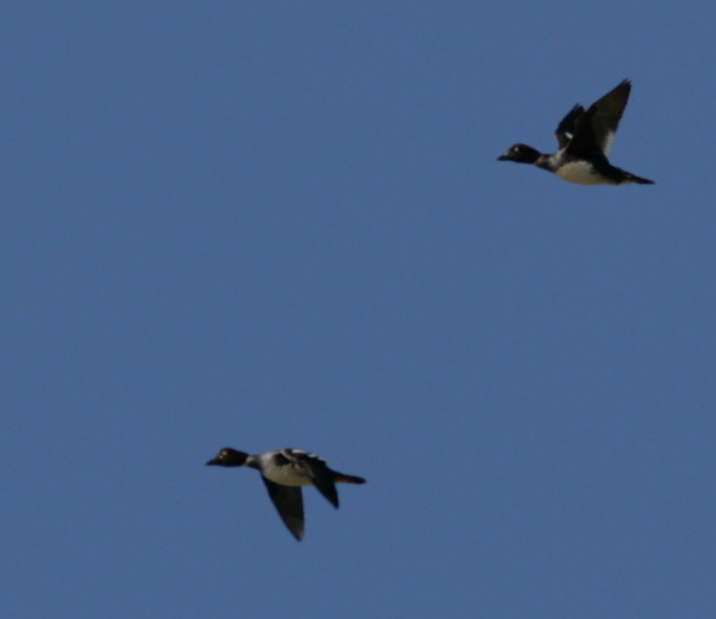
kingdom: Animalia
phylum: Chordata
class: Aves
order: Anseriformes
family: Anatidae
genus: Bucephala
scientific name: Bucephala clangula
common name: Common goldeneye
